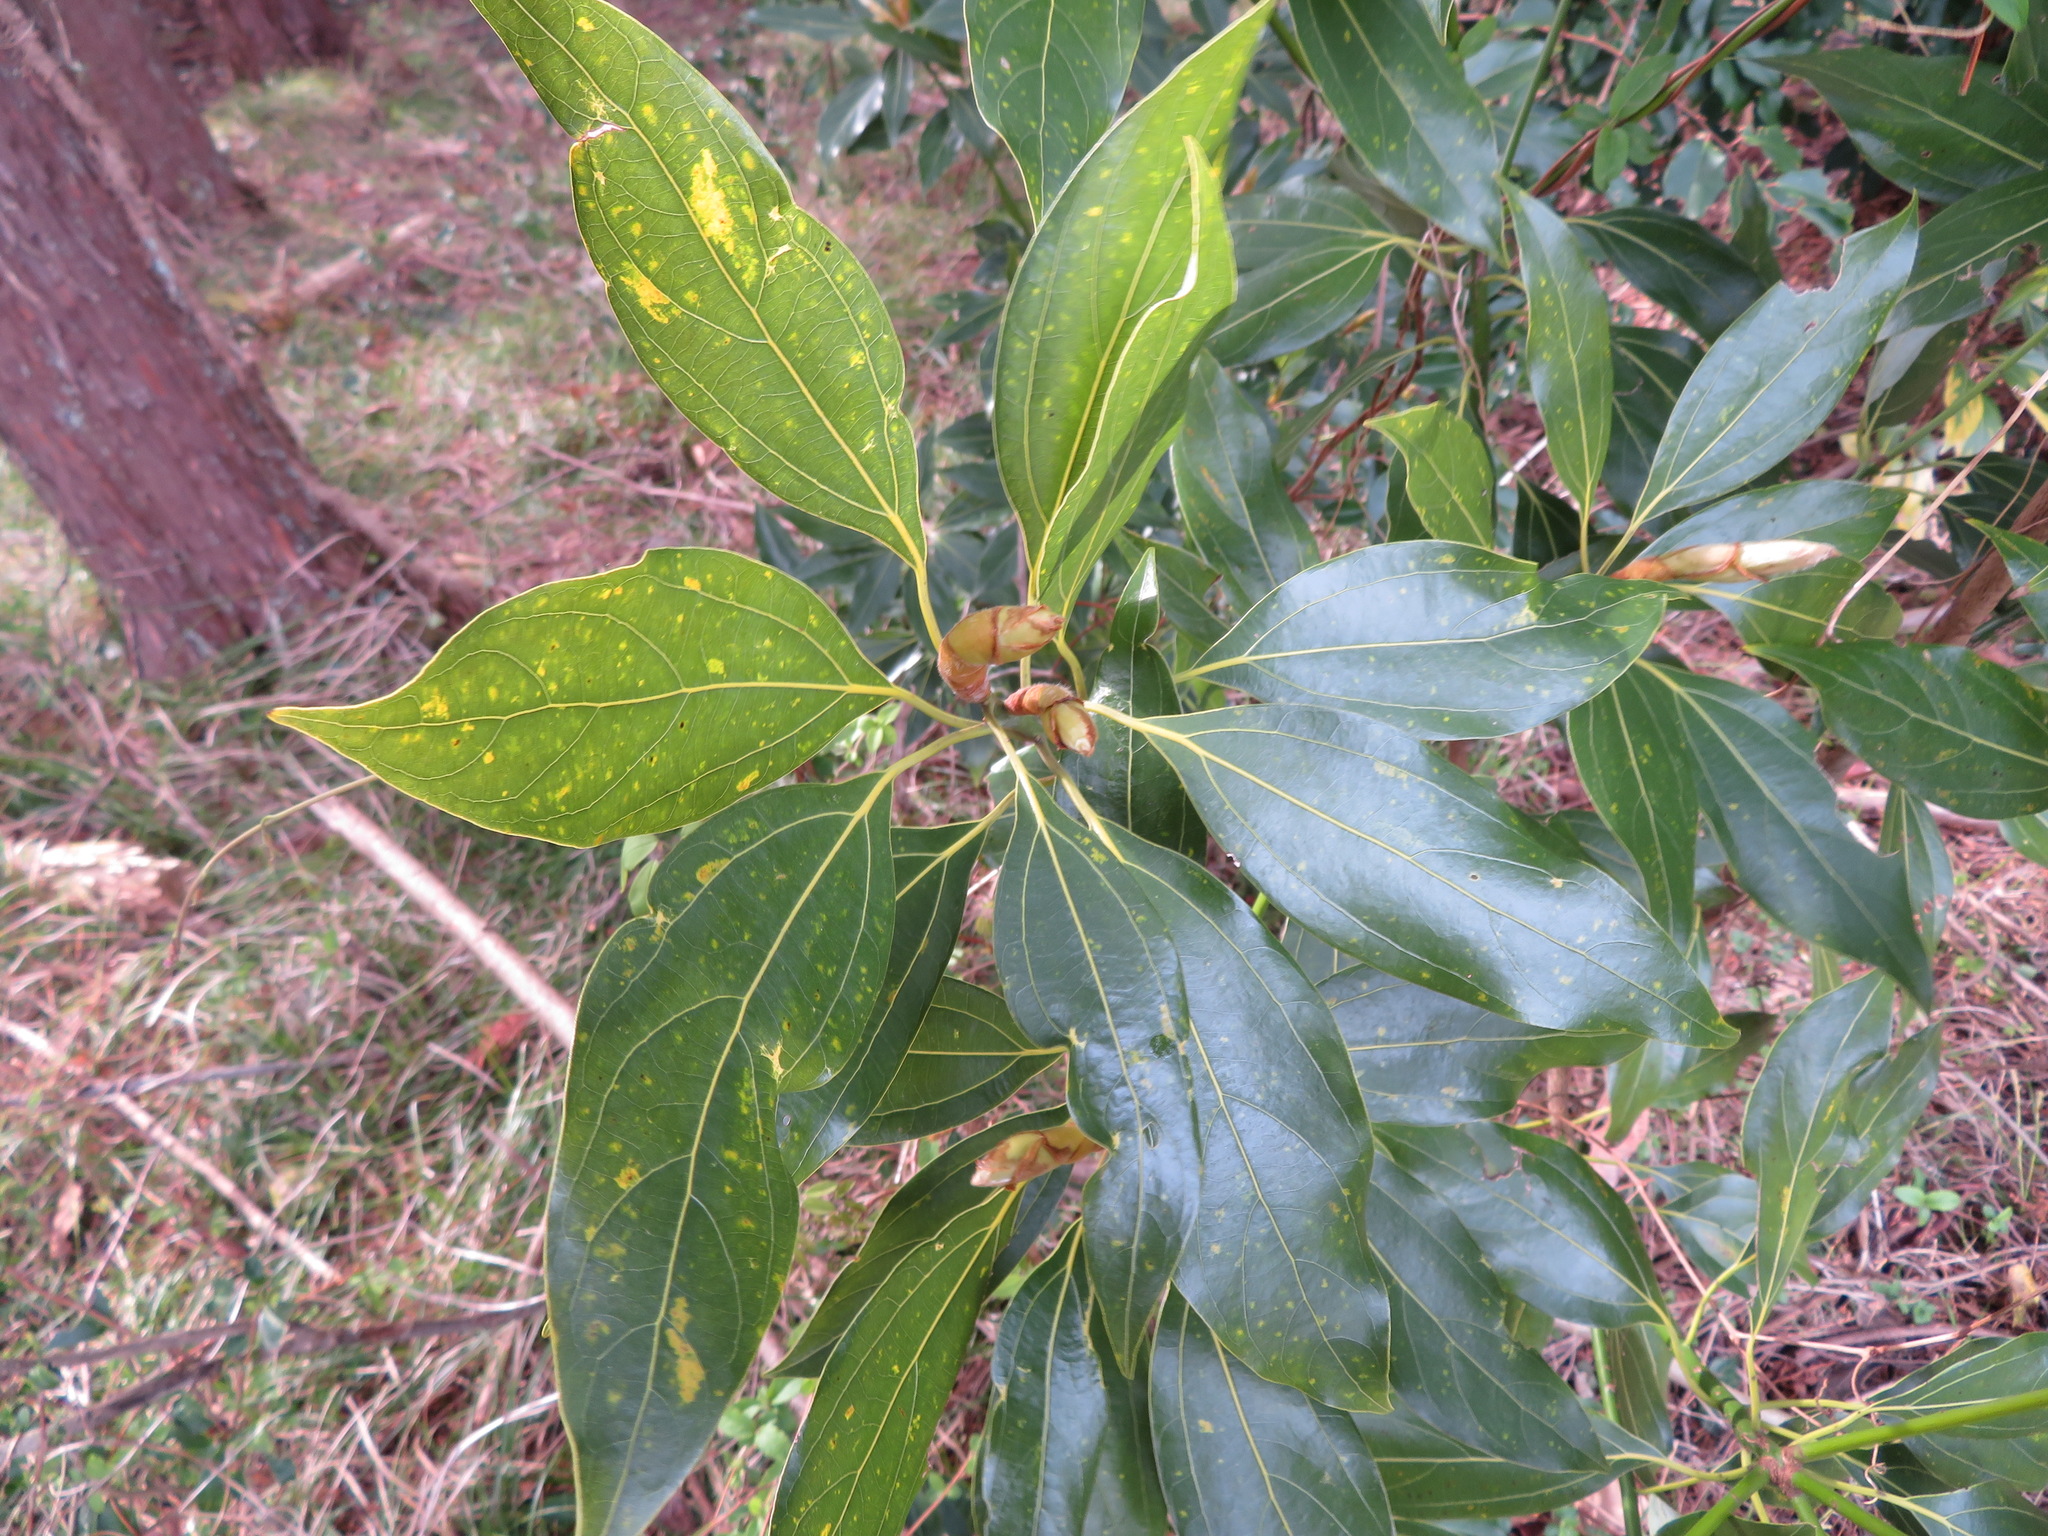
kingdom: Plantae
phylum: Tracheophyta
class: Magnoliopsida
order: Laurales
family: Lauraceae
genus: Neolitsea
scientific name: Neolitsea sericea
